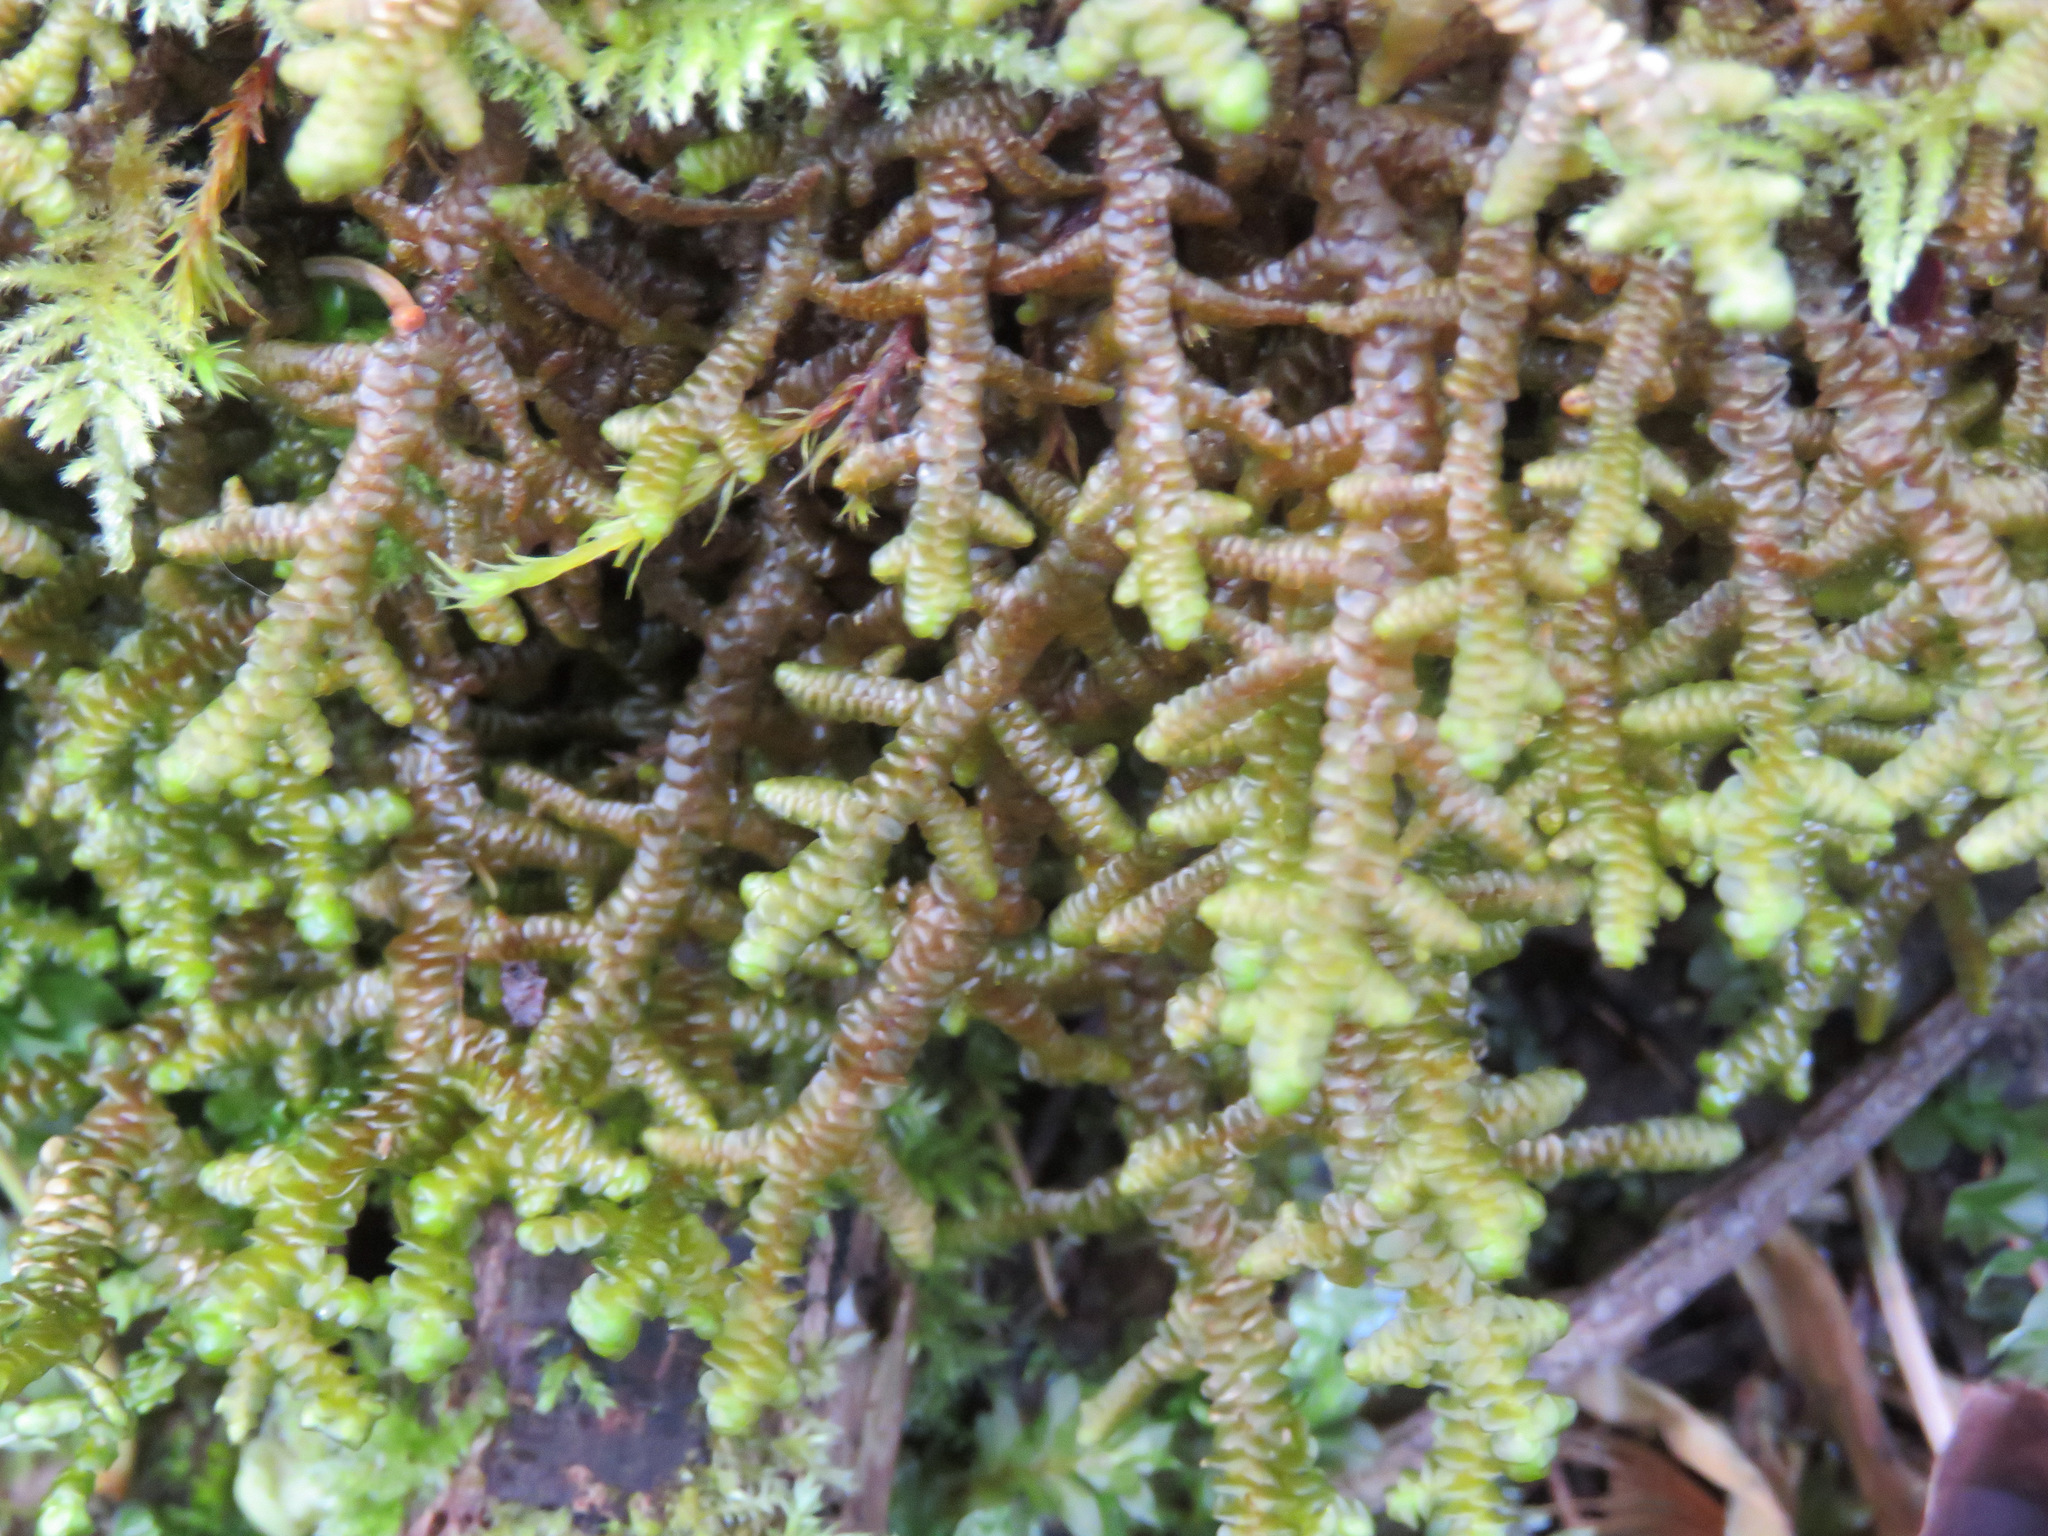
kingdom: Plantae
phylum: Marchantiophyta
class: Jungermanniopsida
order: Porellales
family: Porellaceae
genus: Porella
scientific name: Porella navicularis
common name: Tree ruffle liverwort
